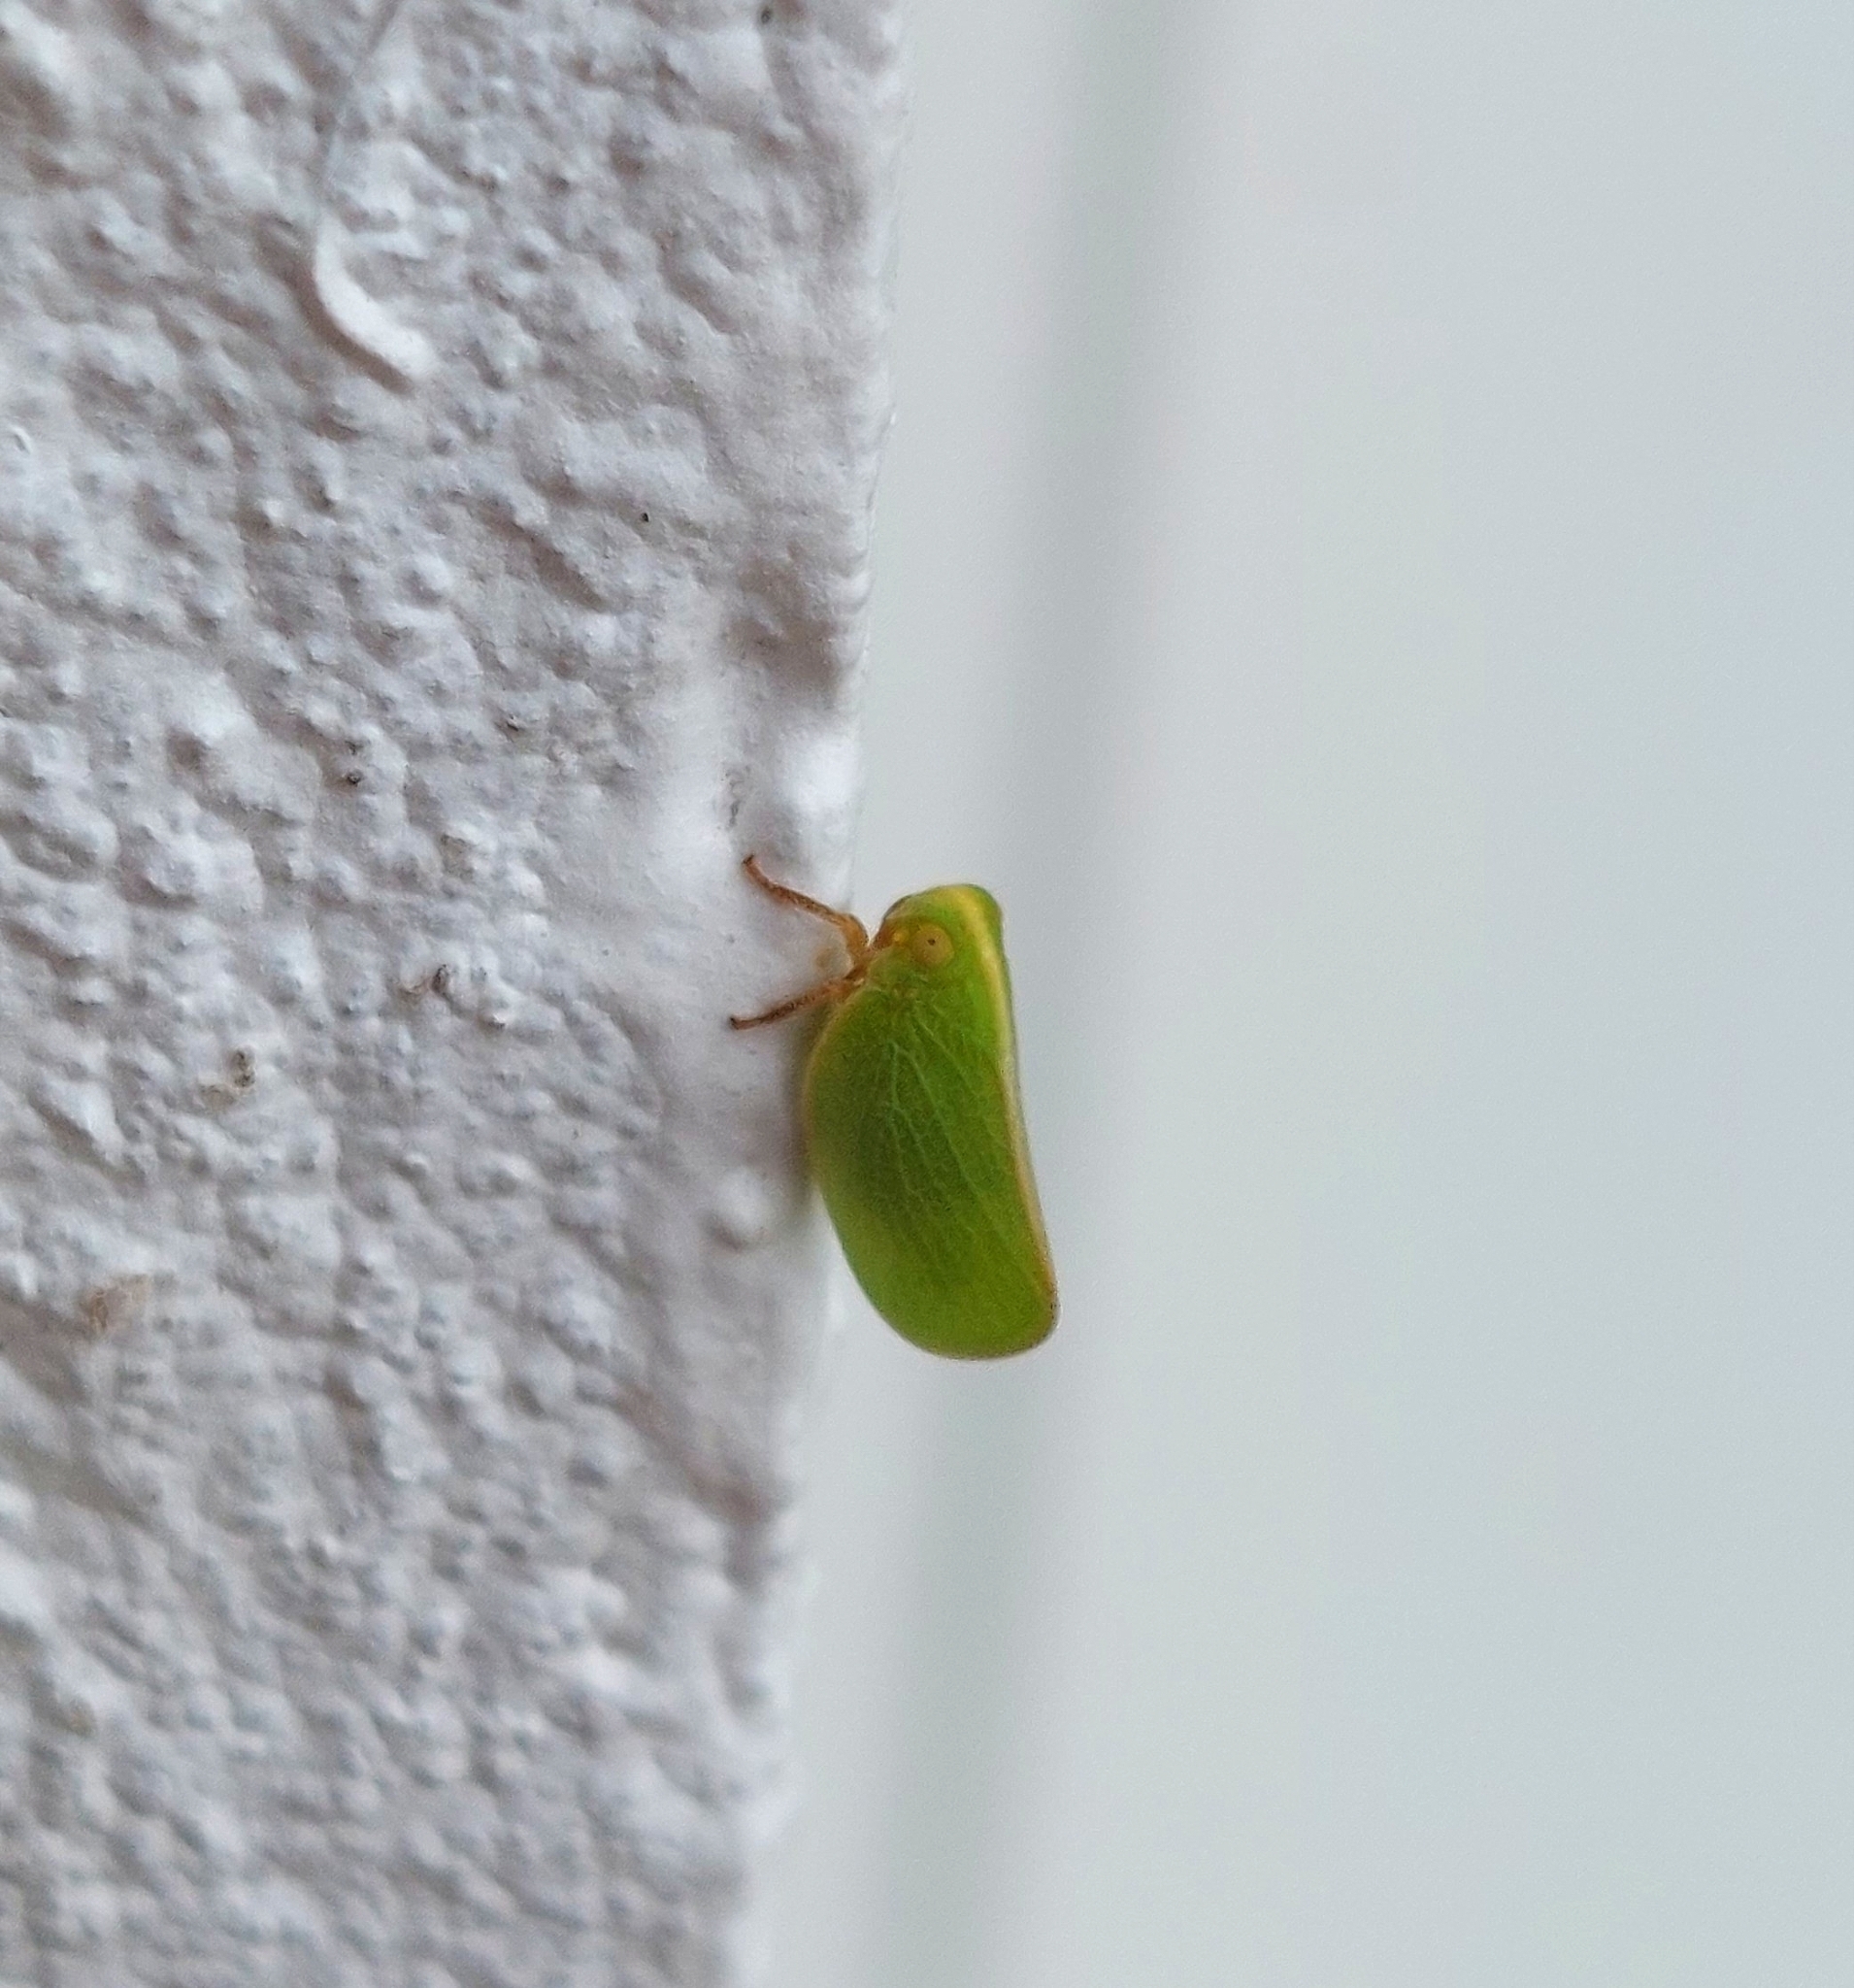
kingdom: Animalia
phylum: Arthropoda
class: Insecta
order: Hemiptera
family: Acanaloniidae
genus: Acanalonia
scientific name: Acanalonia chloris
